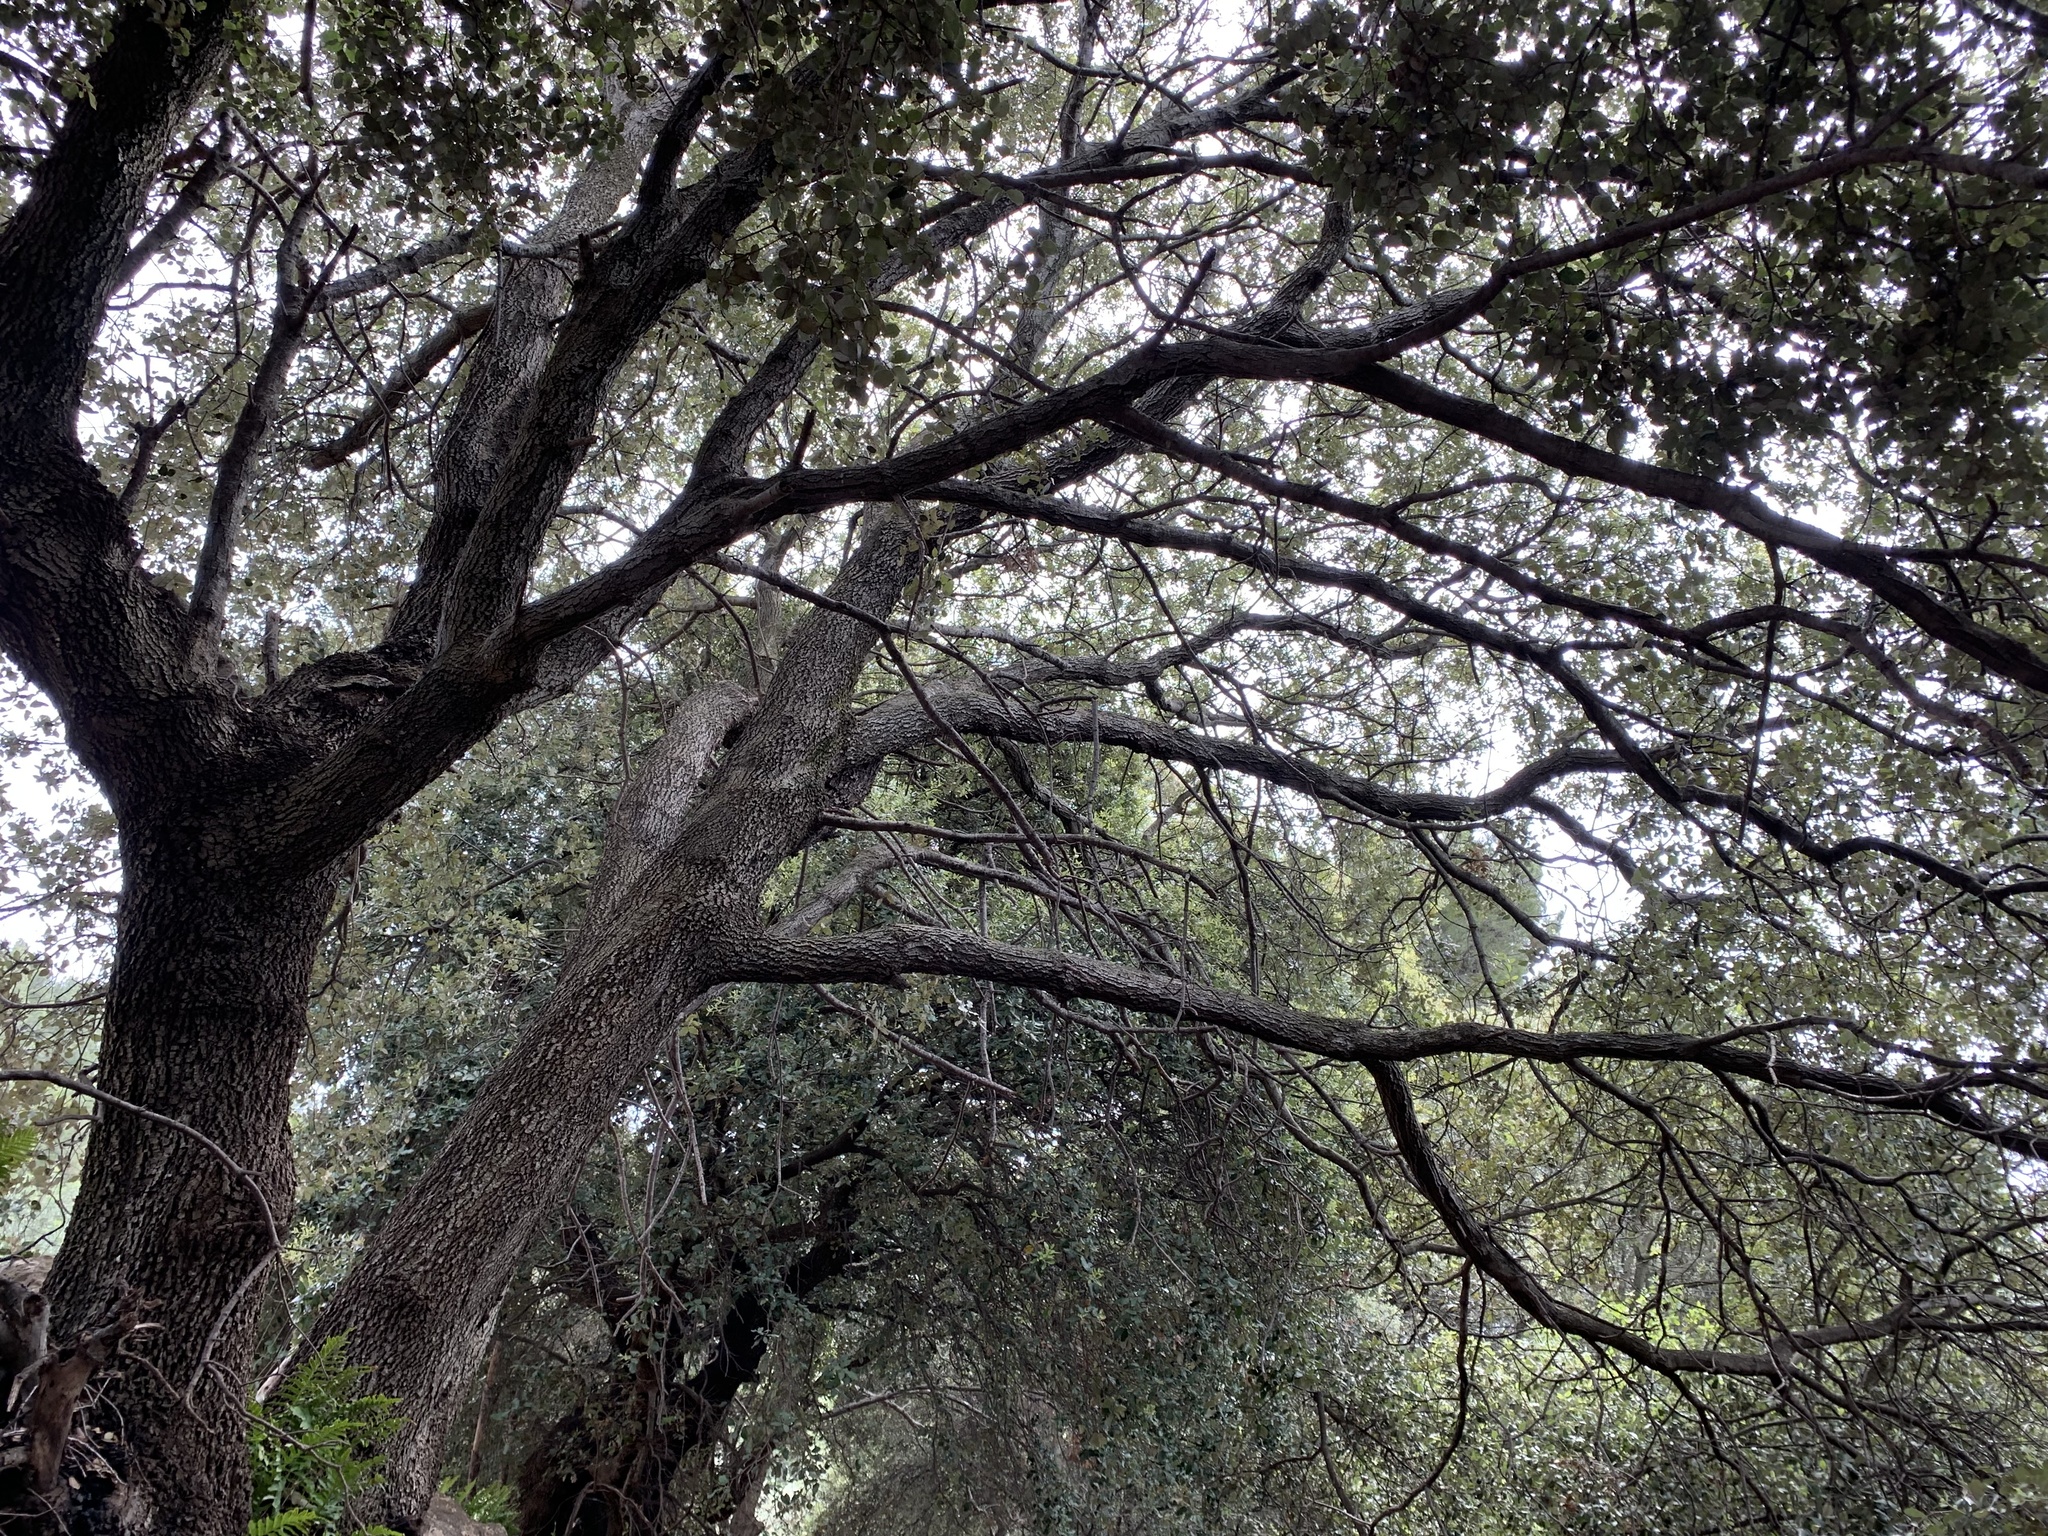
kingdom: Plantae
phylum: Tracheophyta
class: Magnoliopsida
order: Fagales
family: Fagaceae
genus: Quercus
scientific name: Quercus ilex
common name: Evergreen oak
